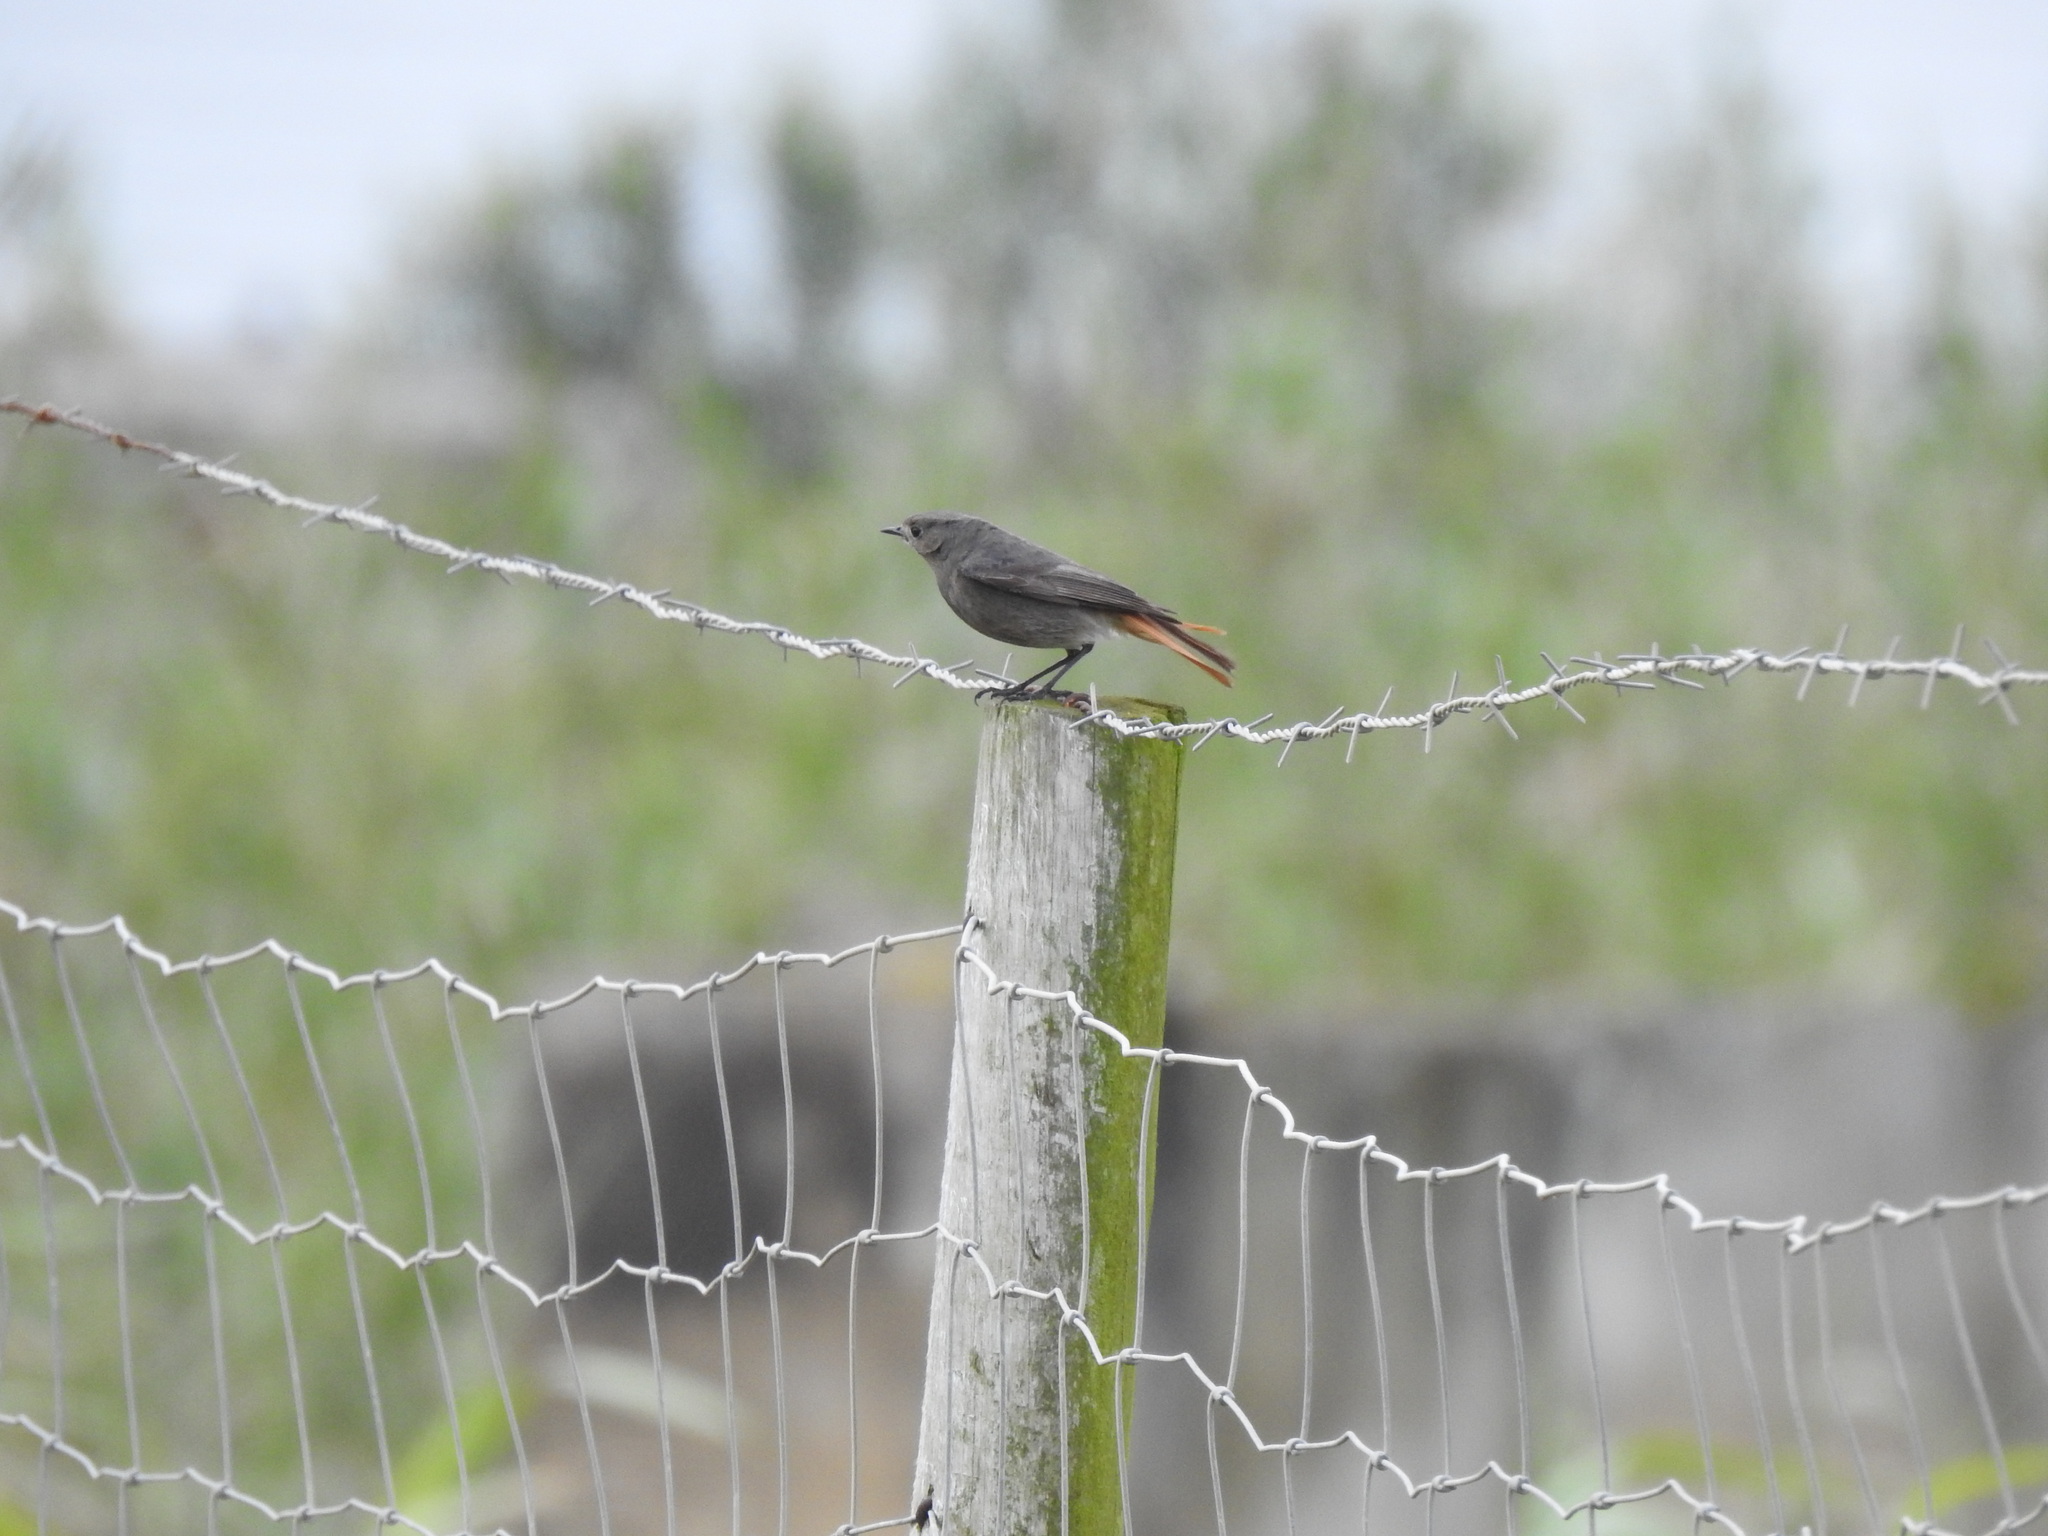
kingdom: Animalia
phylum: Chordata
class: Aves
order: Passeriformes
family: Muscicapidae
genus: Phoenicurus
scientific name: Phoenicurus ochruros
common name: Black redstart
